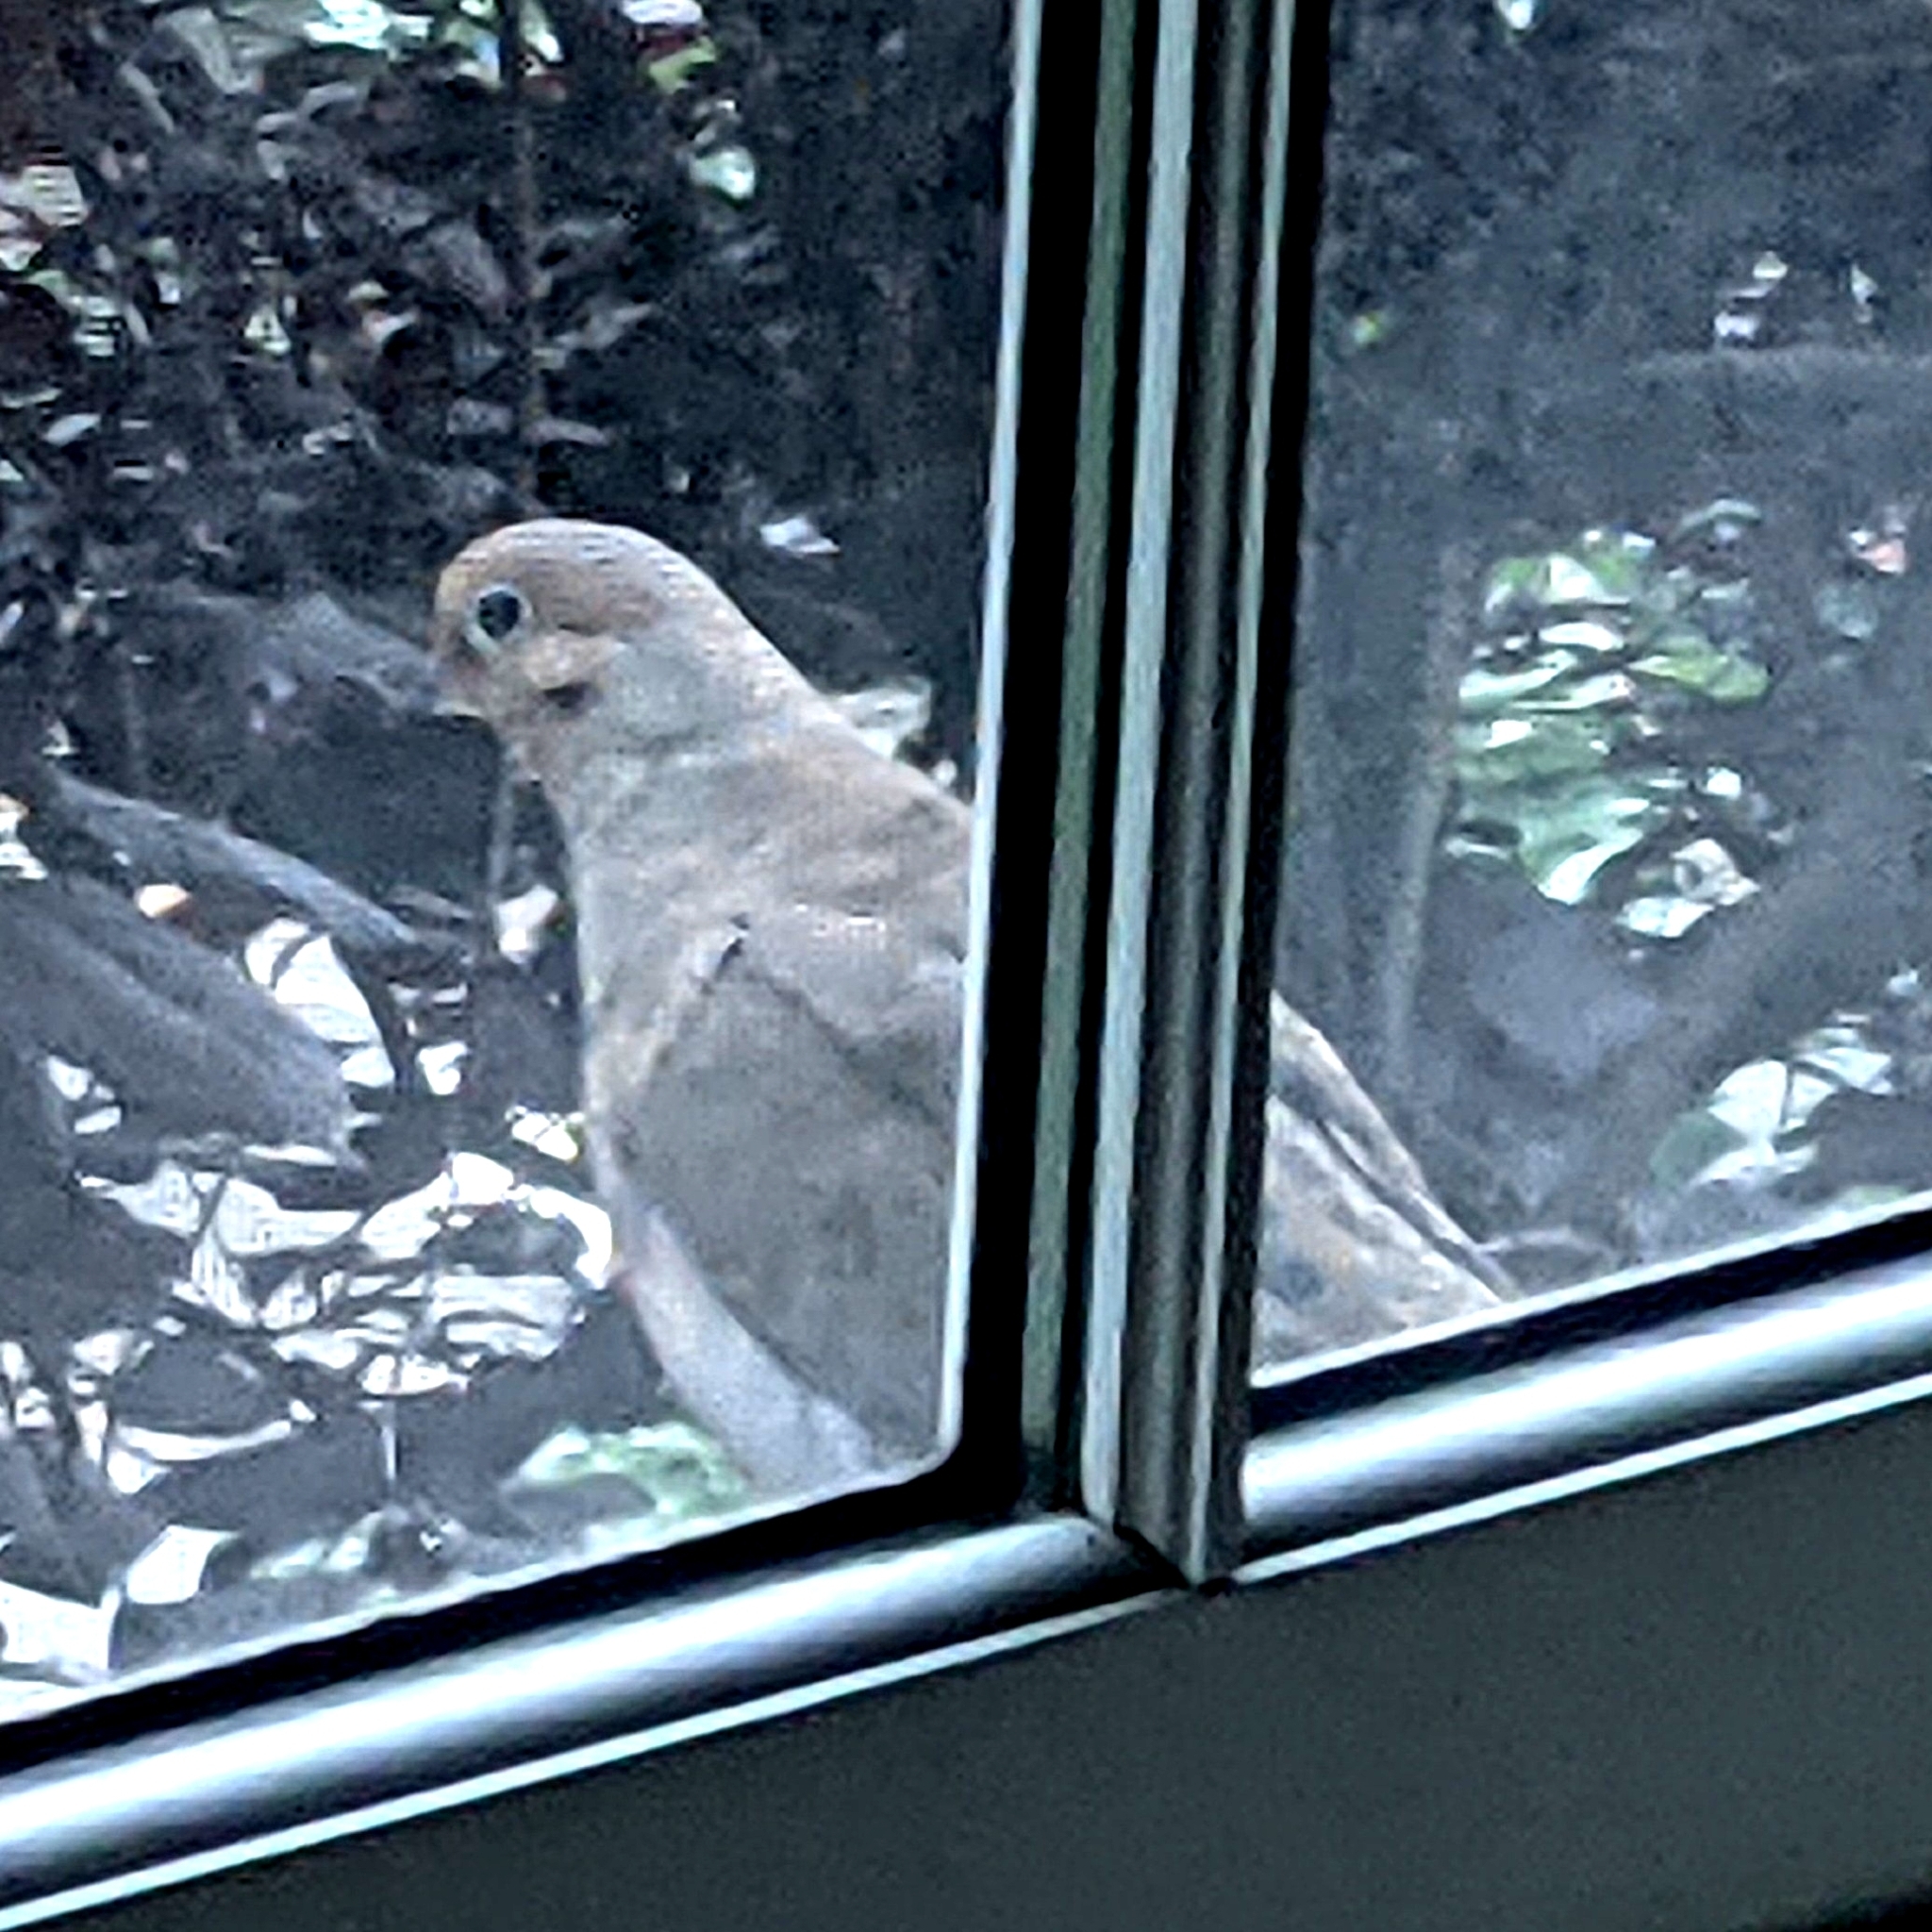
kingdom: Animalia
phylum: Chordata
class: Aves
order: Columbiformes
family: Columbidae
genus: Zenaida
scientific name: Zenaida macroura
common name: Mourning dove
